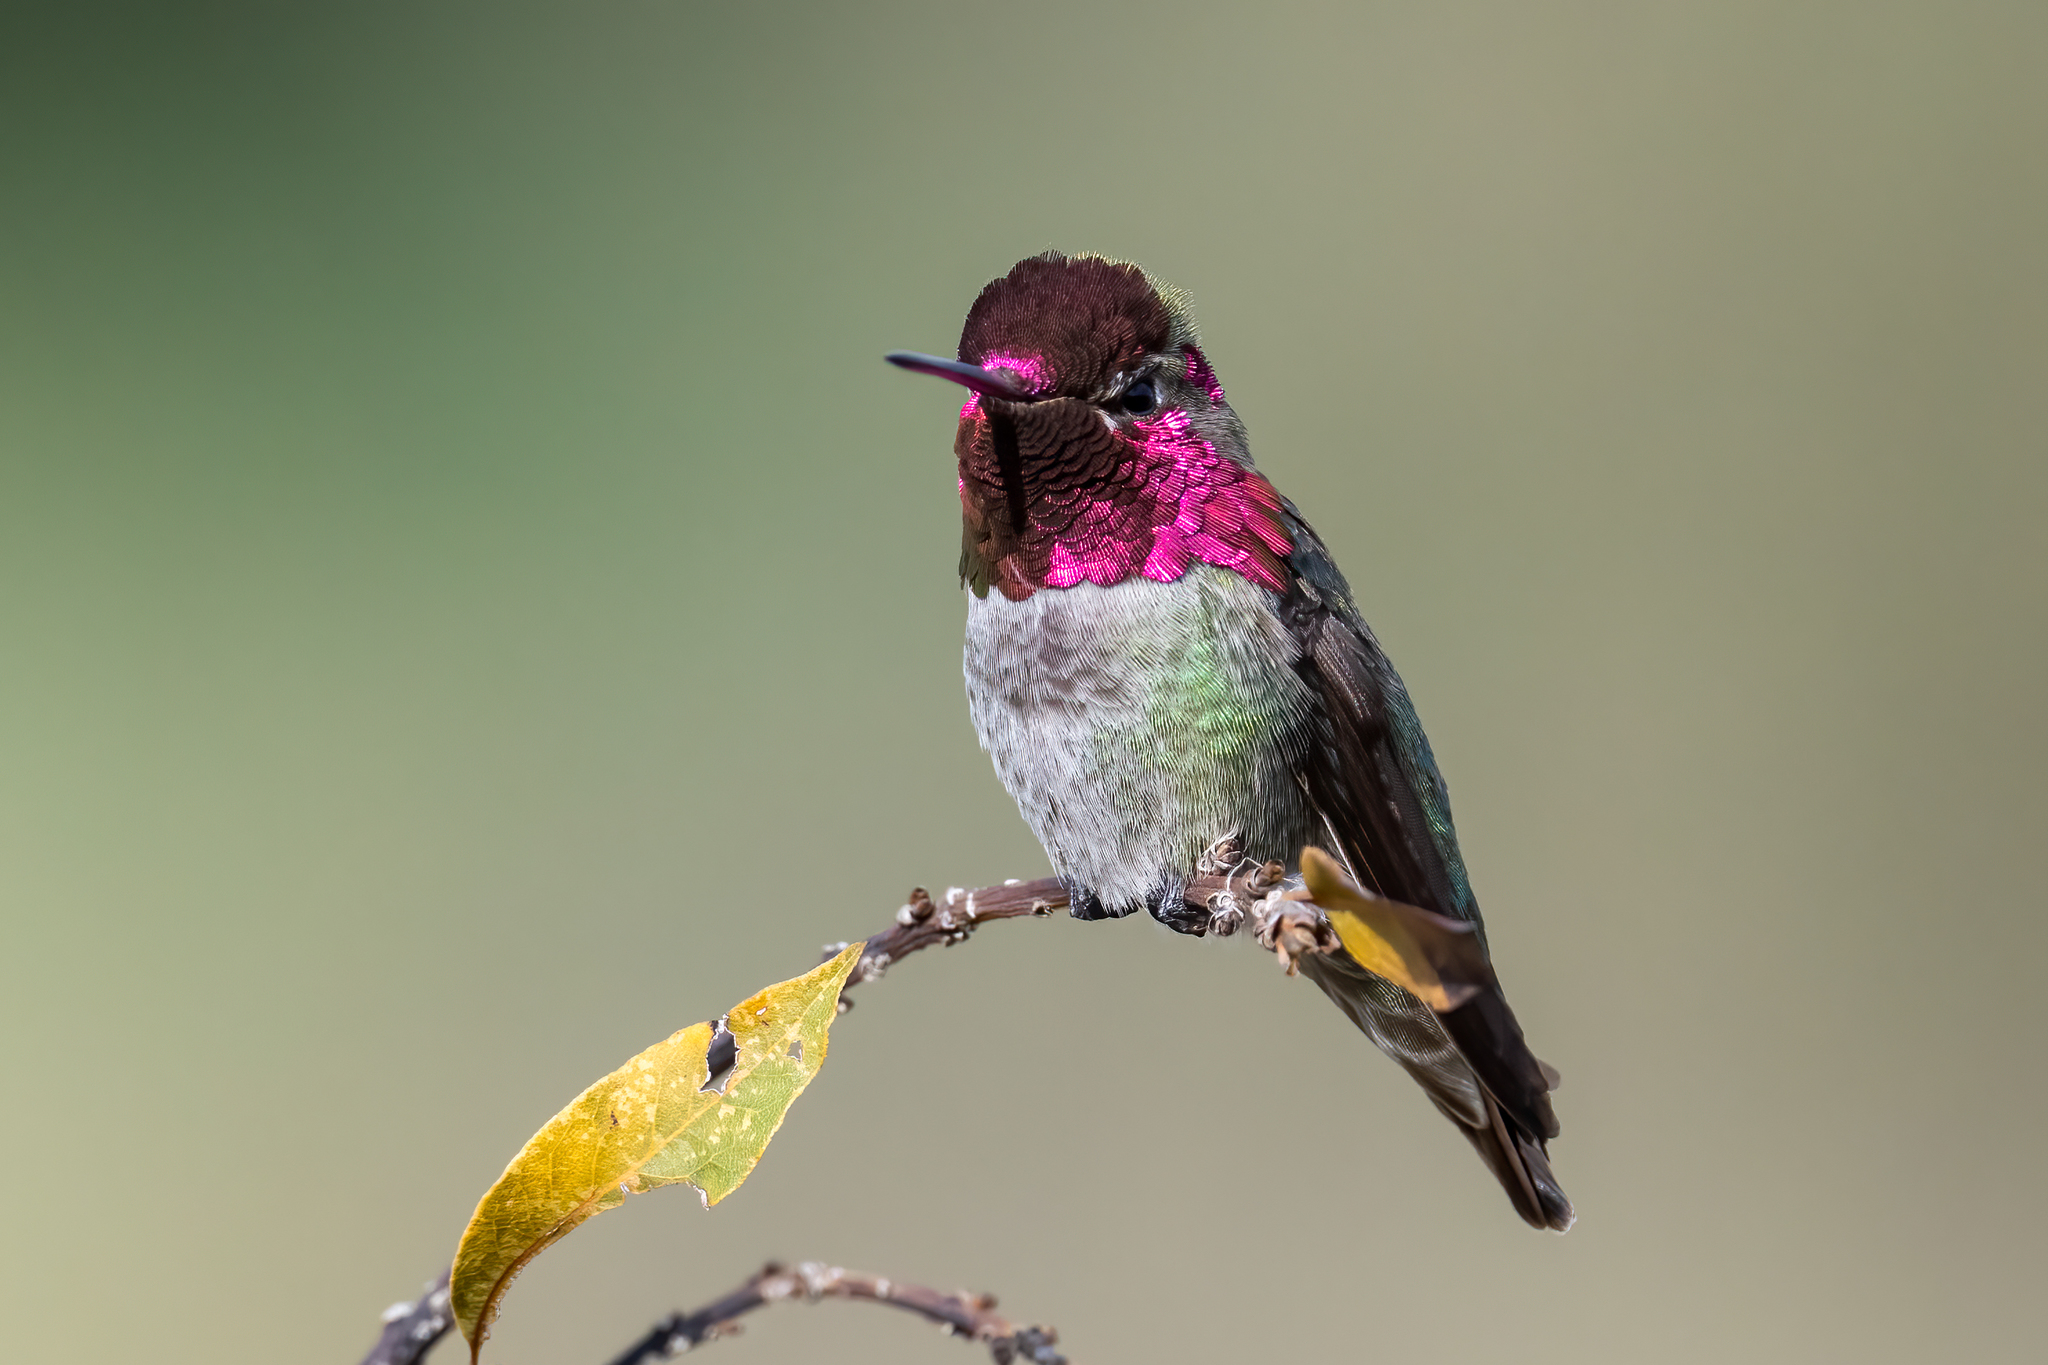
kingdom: Animalia
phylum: Chordata
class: Aves
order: Apodiformes
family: Trochilidae
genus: Calypte
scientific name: Calypte anna
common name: Anna's hummingbird
